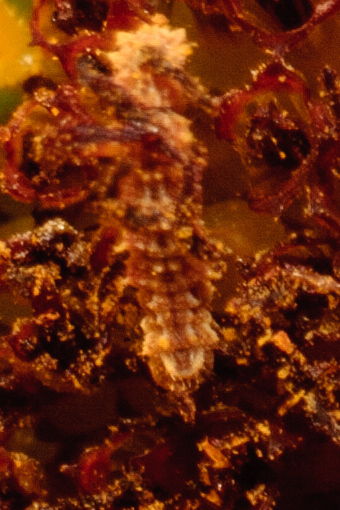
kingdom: Animalia
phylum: Arthropoda
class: Insecta
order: Lepidoptera
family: Geometridae
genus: Synchlora
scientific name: Synchlora
